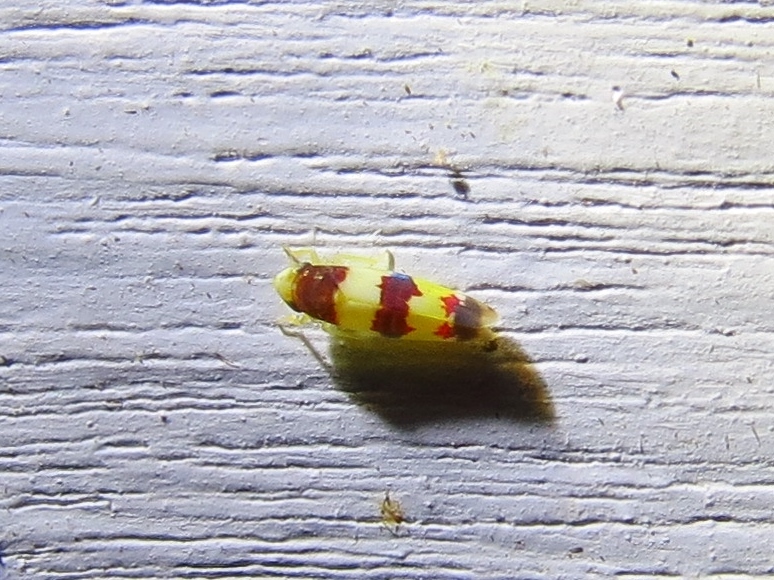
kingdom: Animalia
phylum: Arthropoda
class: Insecta
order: Hemiptera
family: Cicadellidae
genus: Erythroneura
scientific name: Erythroneura bistrata
